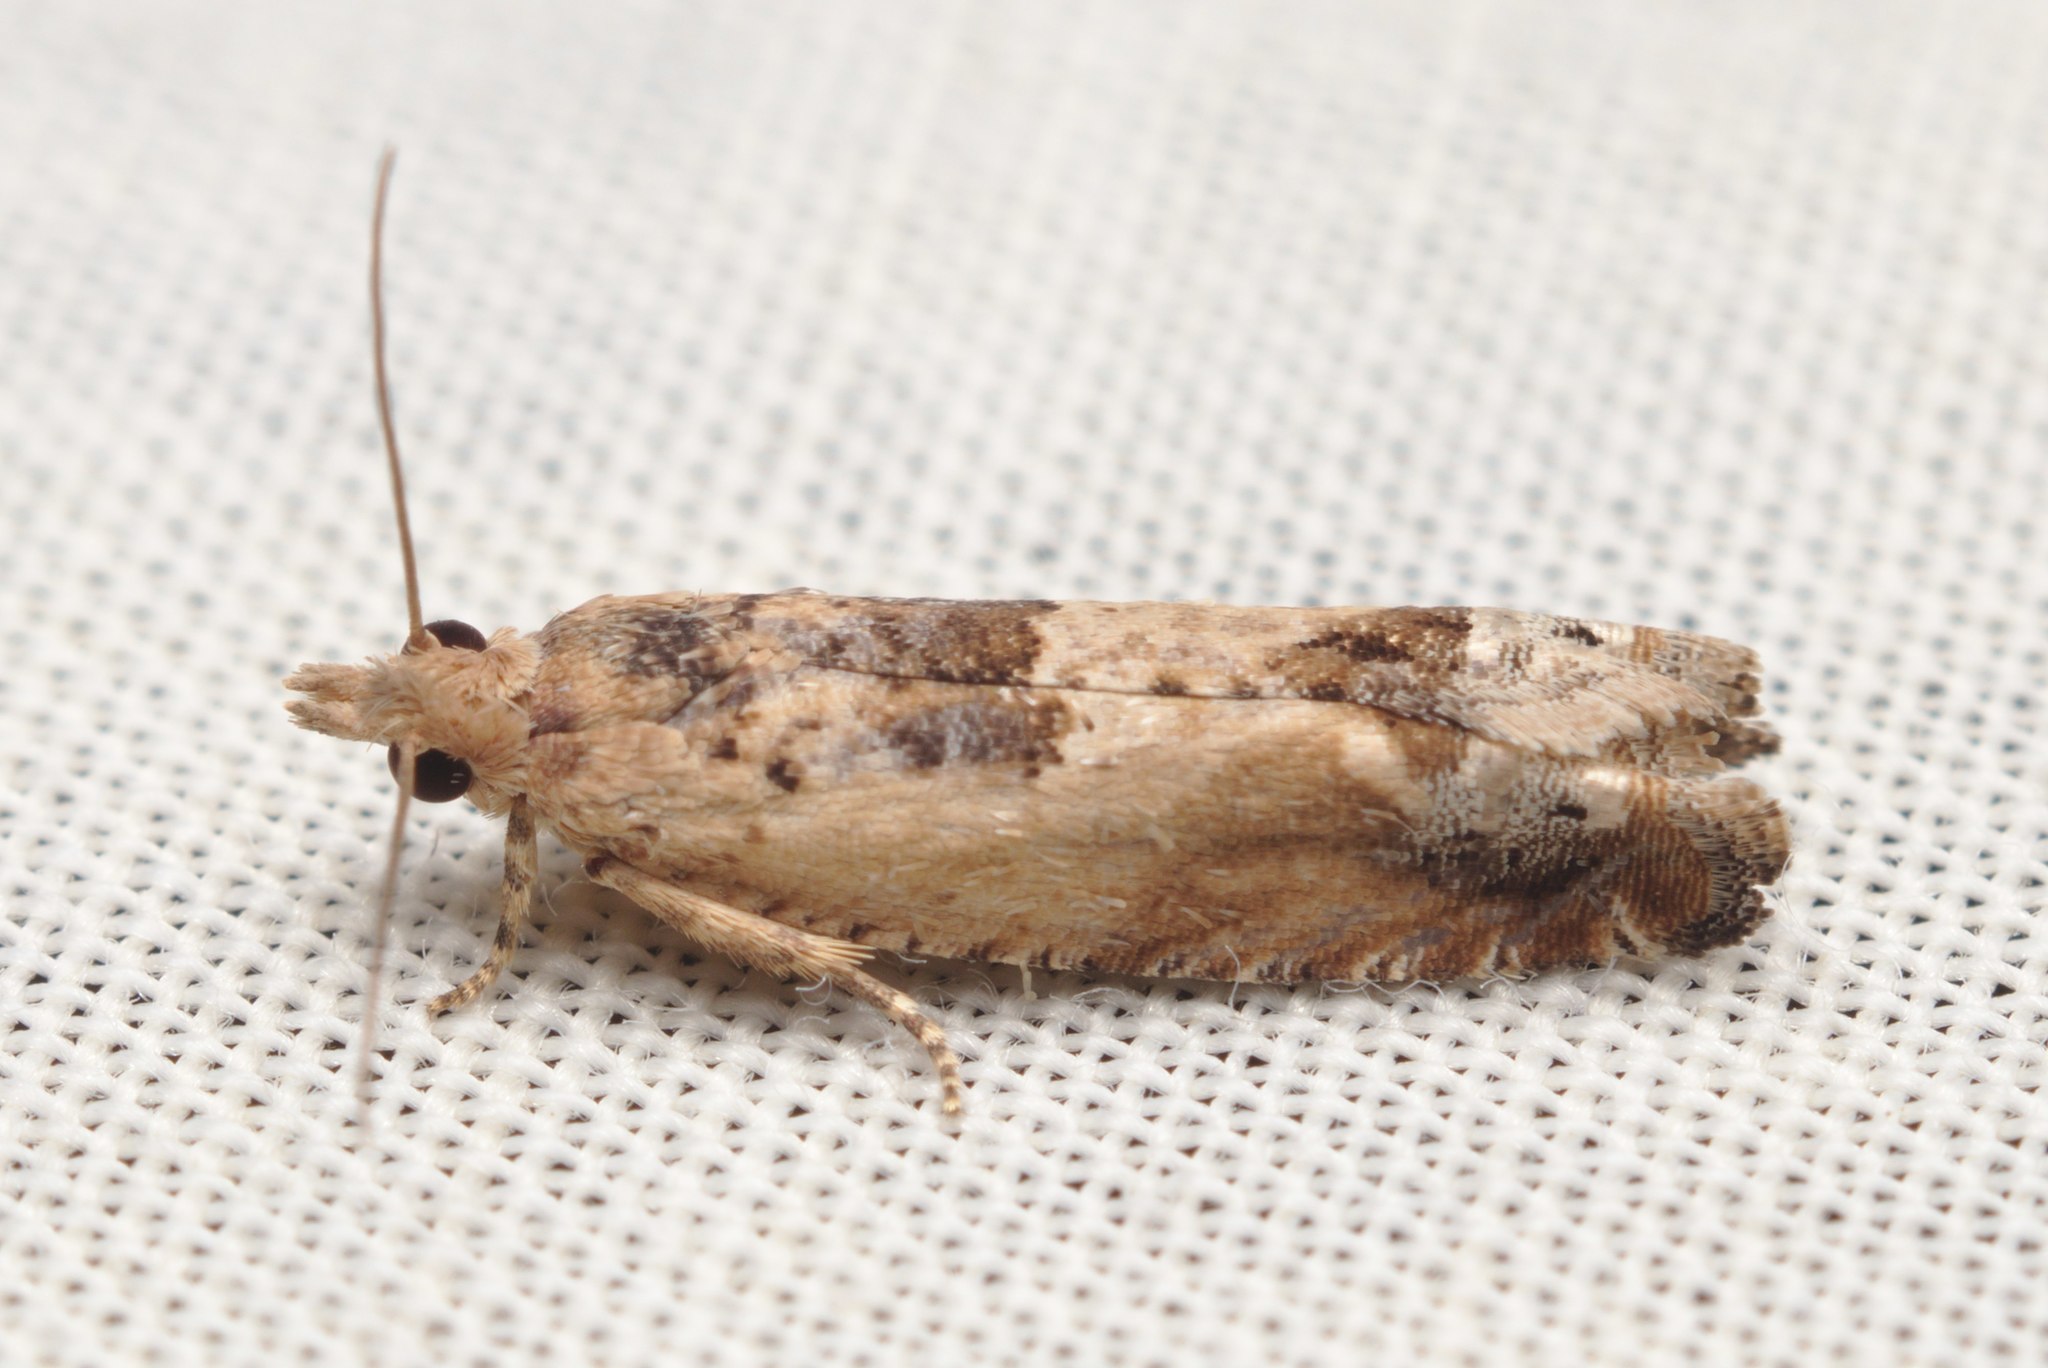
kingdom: Animalia
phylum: Arthropoda
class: Insecta
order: Lepidoptera
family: Tortricidae
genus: Crocidosema
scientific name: Crocidosema plebejana
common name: Southern bell
